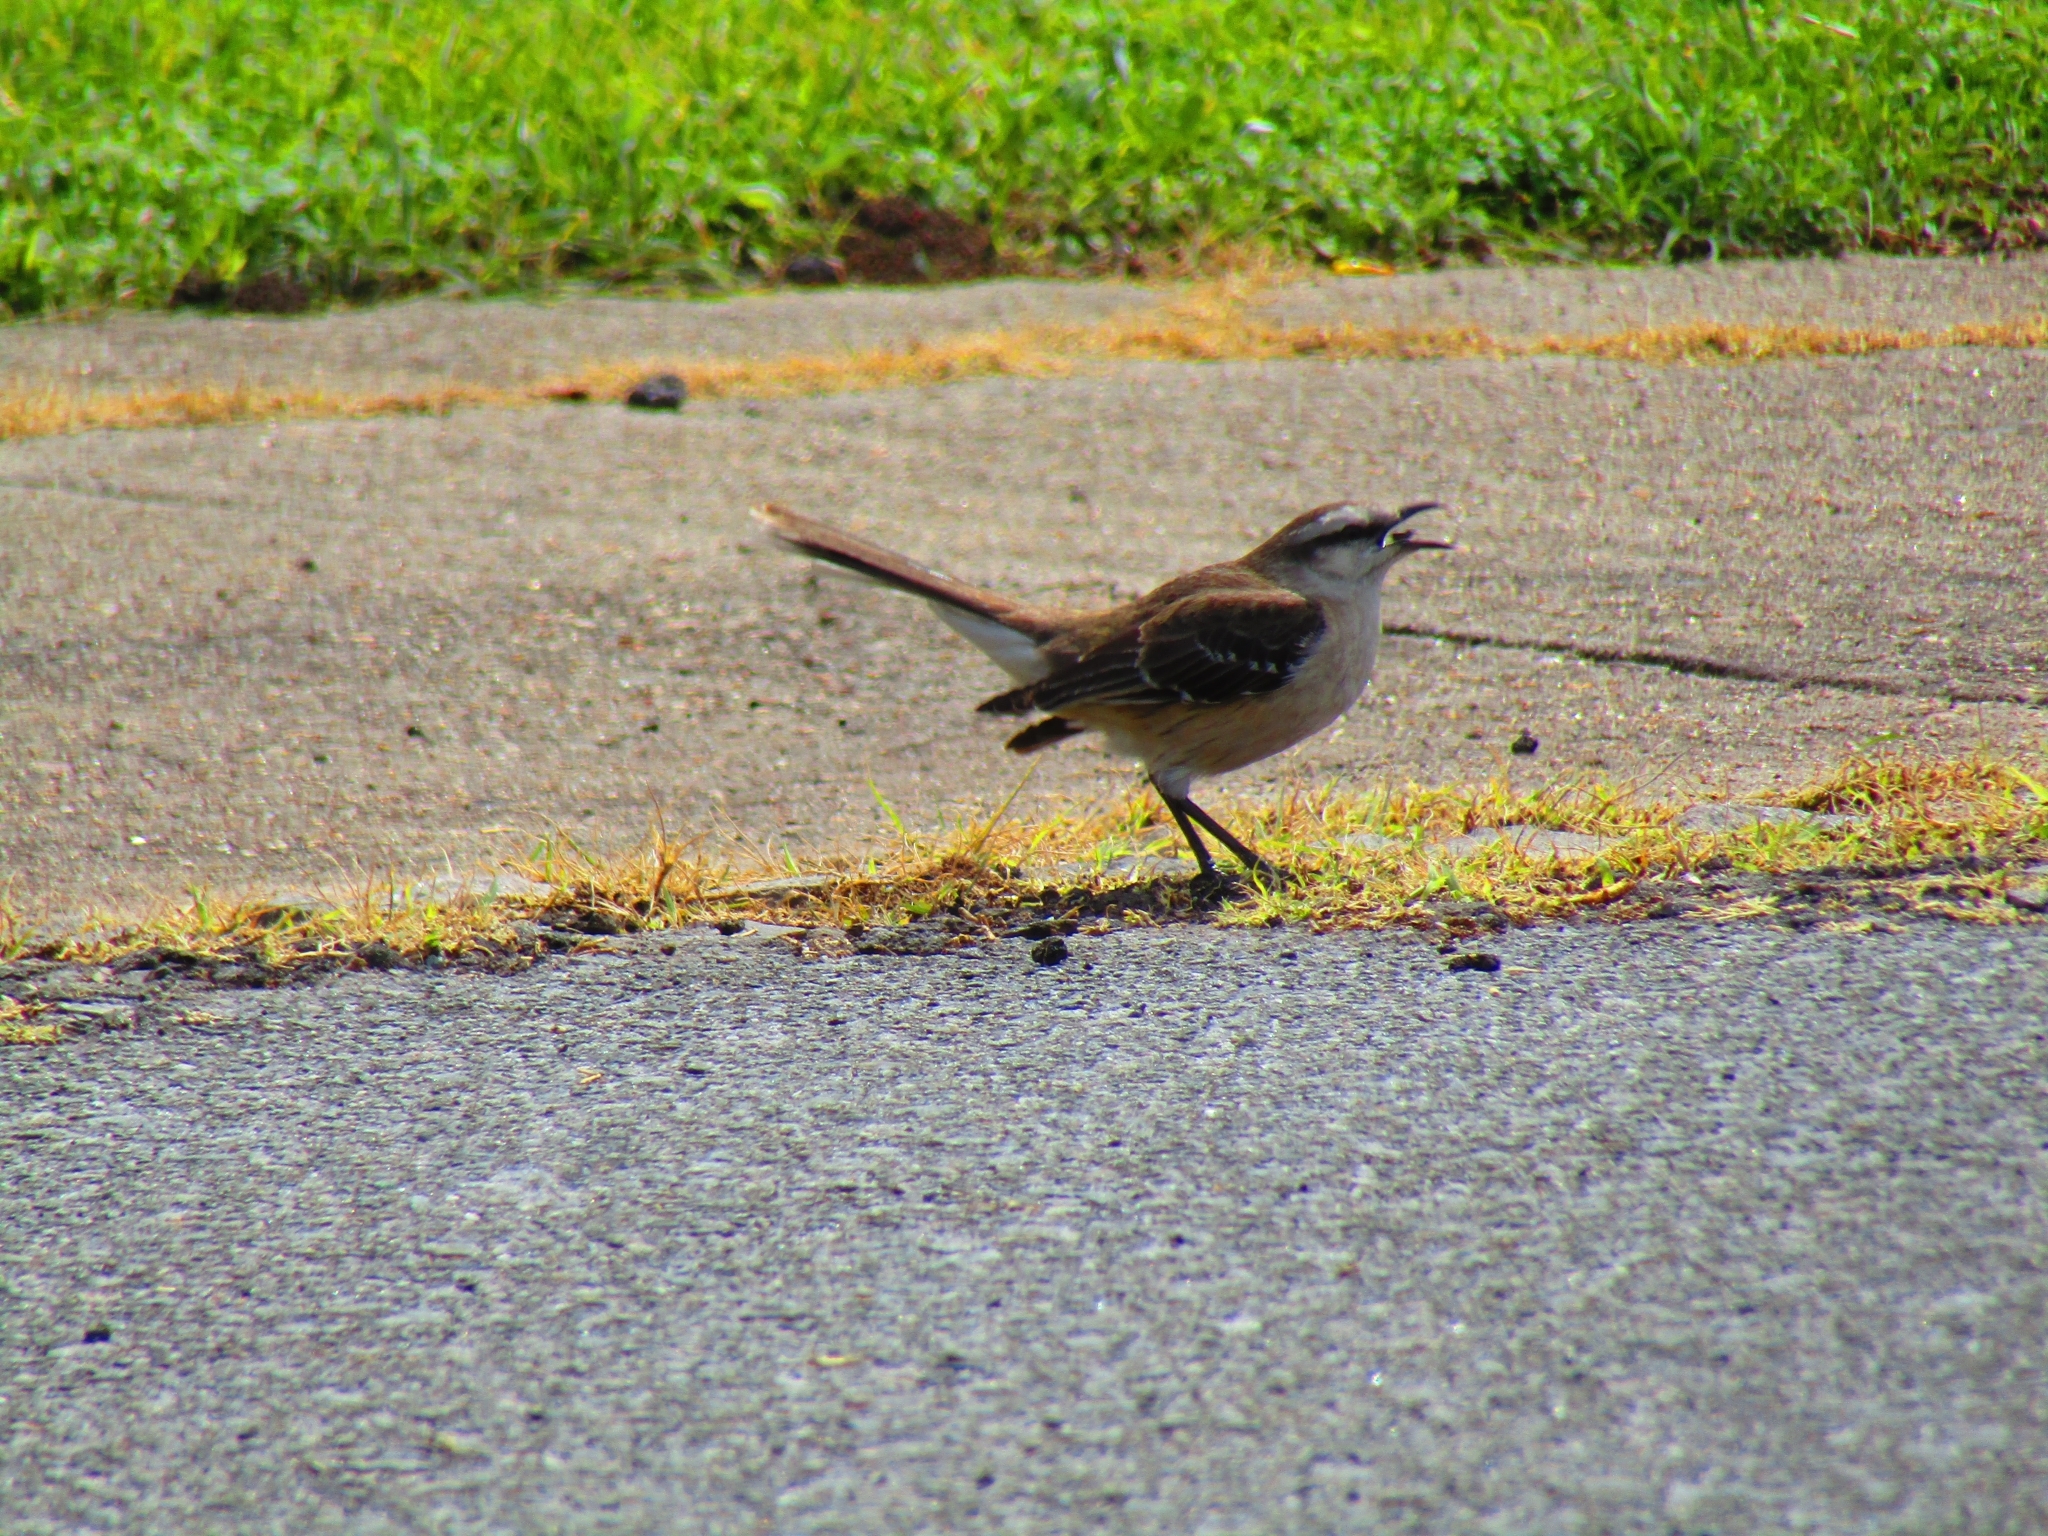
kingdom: Animalia
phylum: Chordata
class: Aves
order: Passeriformes
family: Mimidae
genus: Mimus
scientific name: Mimus saturninus
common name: Chalk-browed mockingbird
